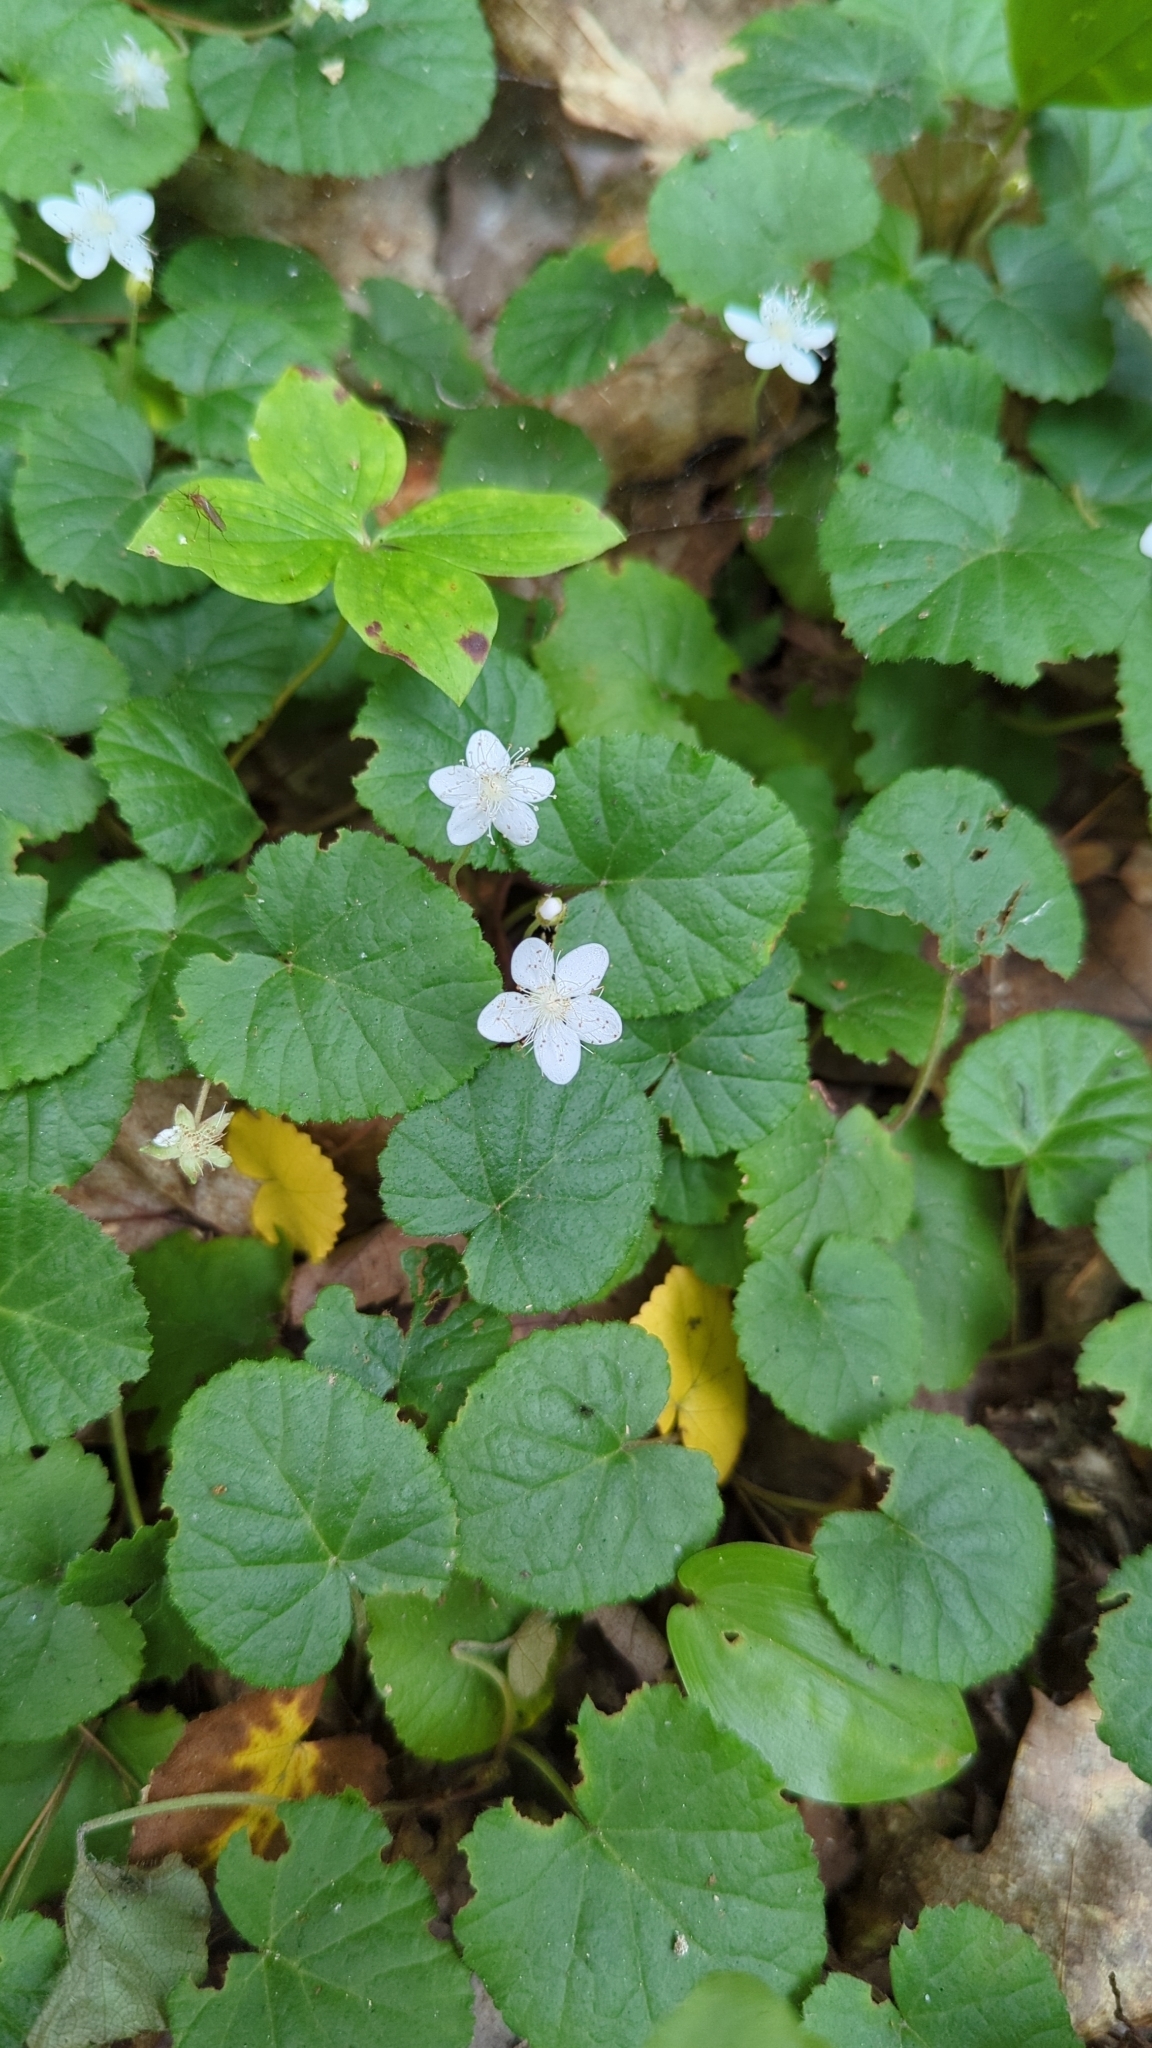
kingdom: Plantae
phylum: Tracheophyta
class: Magnoliopsida
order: Rosales
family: Rosaceae
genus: Dalibarda
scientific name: Dalibarda repens
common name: Dewdrop
